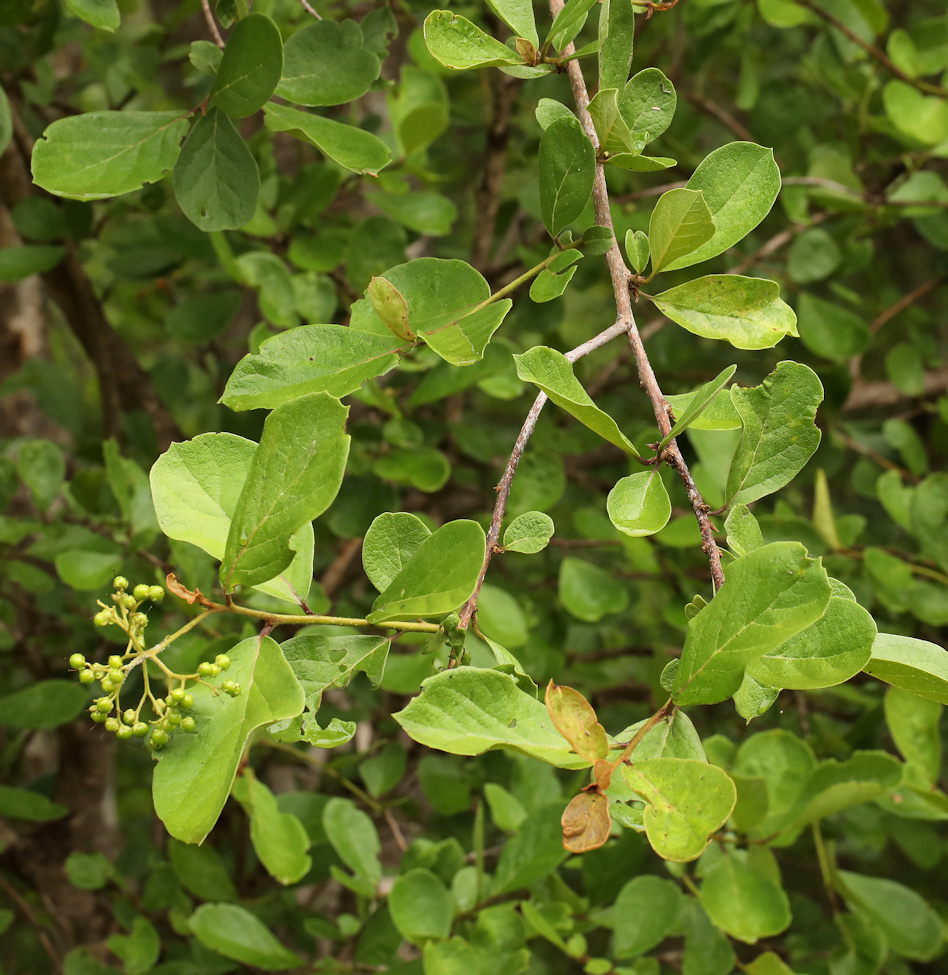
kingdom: Plantae
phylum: Tracheophyta
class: Magnoliopsida
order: Boraginales
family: Ehretiaceae
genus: Ehretia
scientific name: Ehretia amoena
